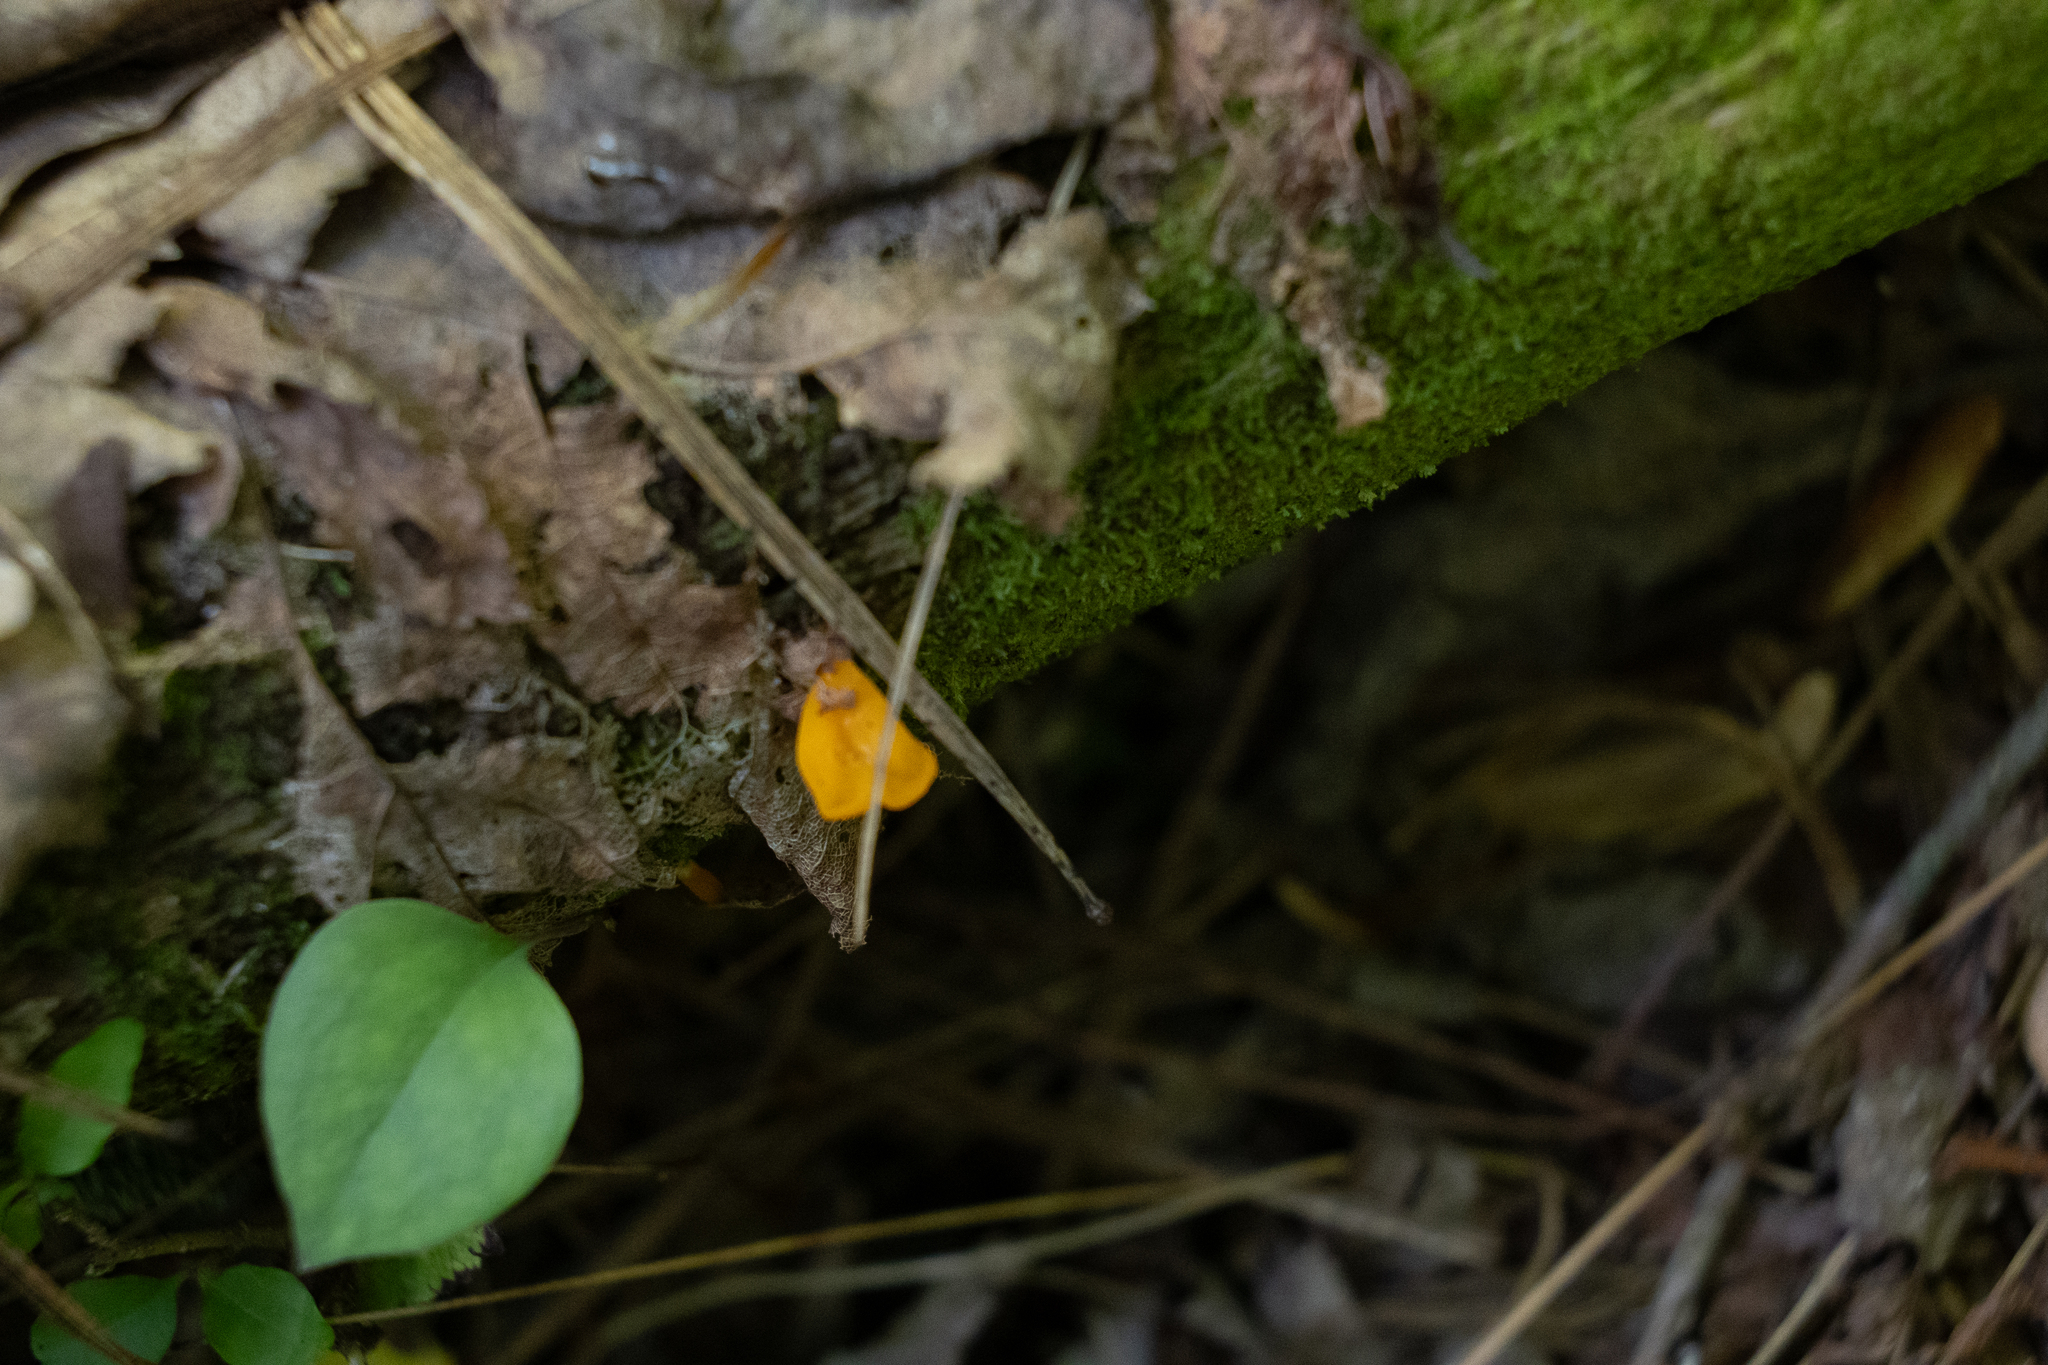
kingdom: Fungi
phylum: Basidiomycota
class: Dacrymycetes
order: Dacrymycetales
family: Dacrymycetaceae
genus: Dacrymyces
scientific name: Dacrymyces spathularius
